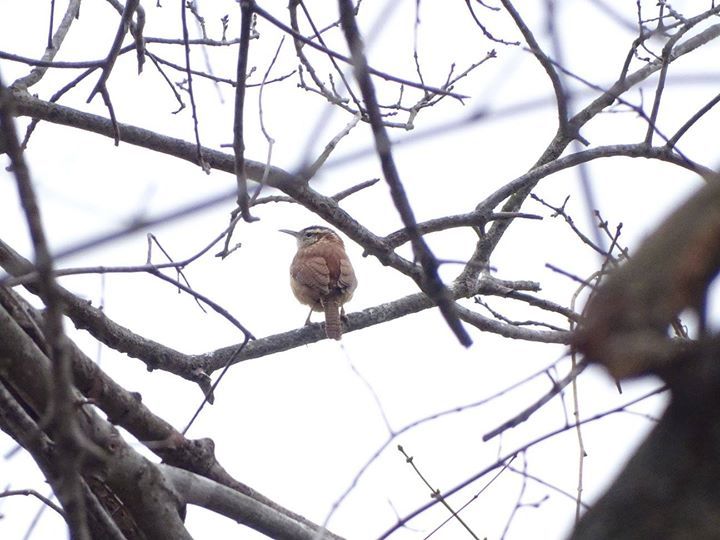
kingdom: Animalia
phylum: Chordata
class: Aves
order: Passeriformes
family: Troglodytidae
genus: Thryothorus
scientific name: Thryothorus ludovicianus
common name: Carolina wren
